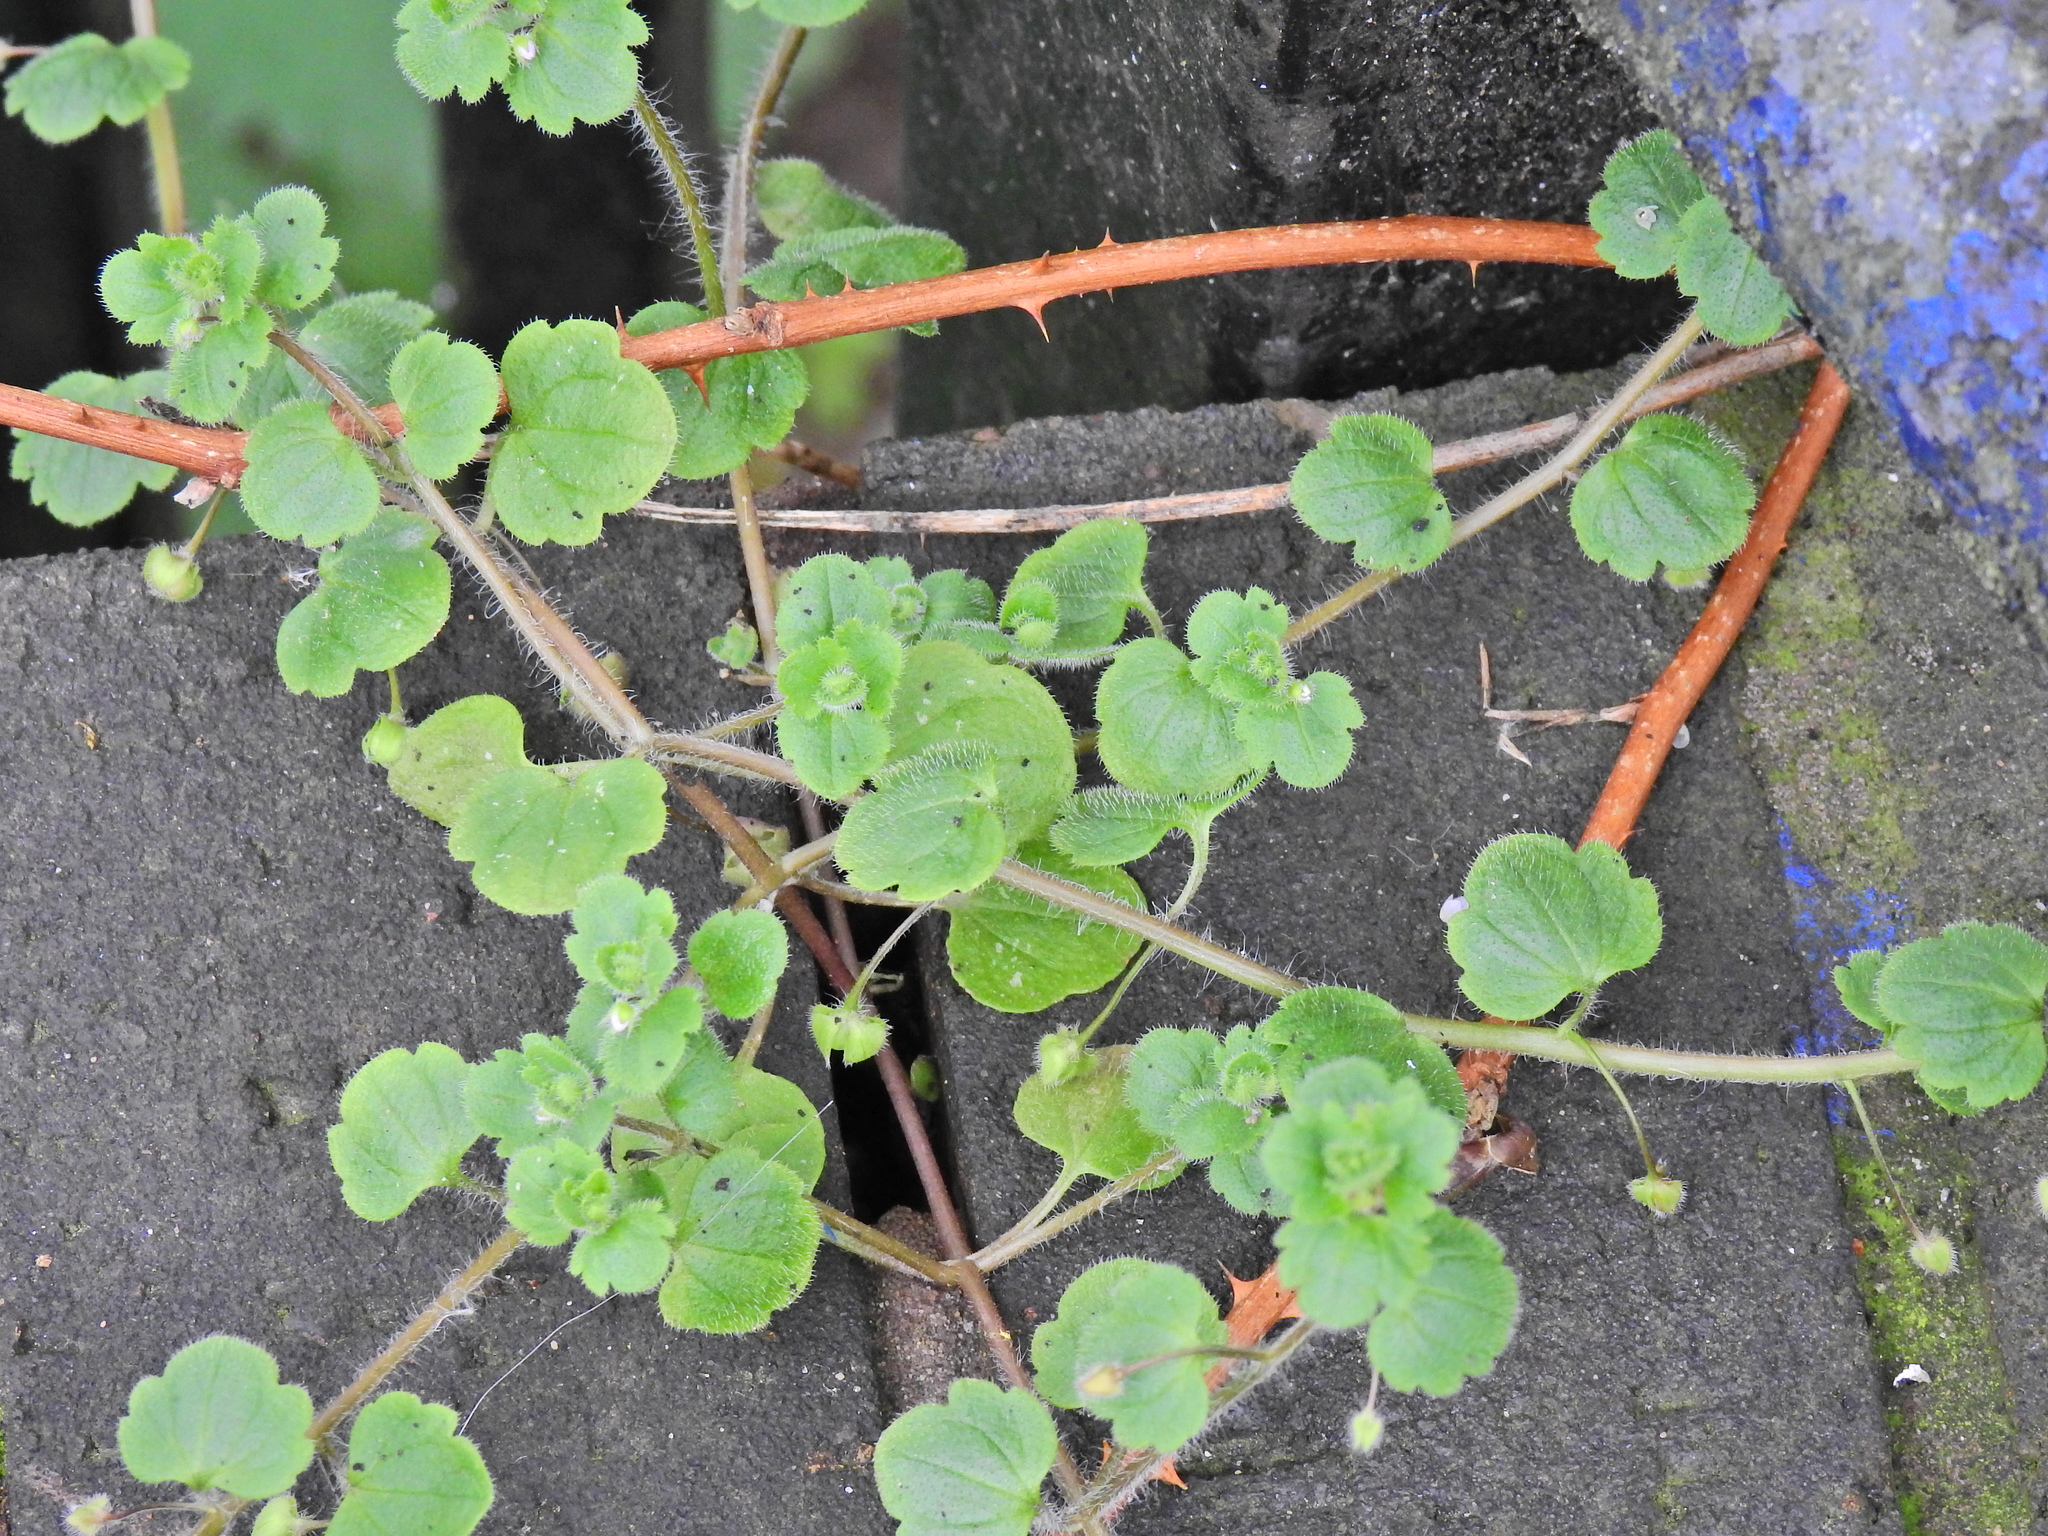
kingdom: Plantae
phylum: Tracheophyta
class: Magnoliopsida
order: Lamiales
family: Plantaginaceae
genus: Veronica
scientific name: Veronica sublobata
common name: False ivy-leaved speedwell
